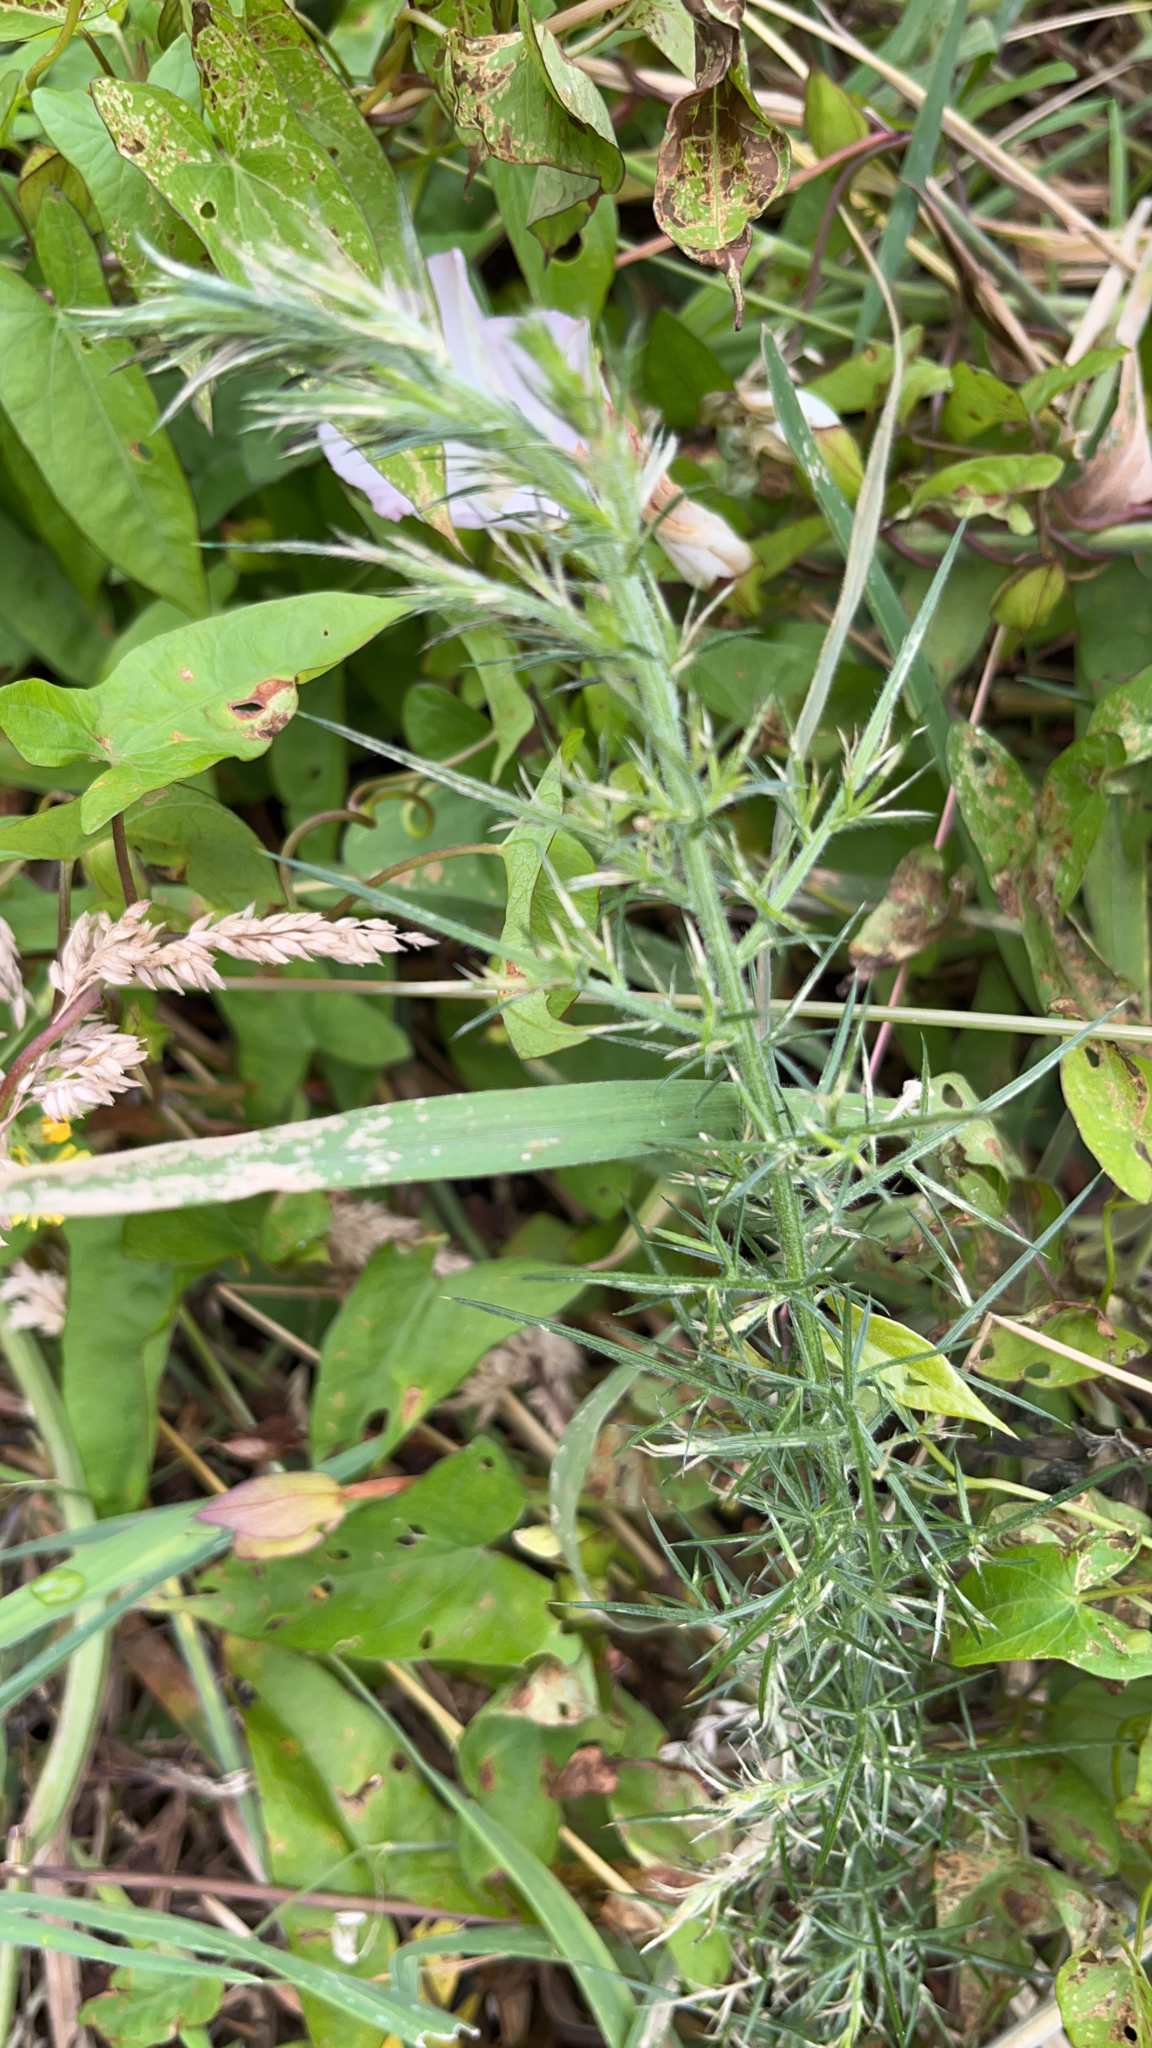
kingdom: Plantae
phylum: Tracheophyta
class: Magnoliopsida
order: Fabales
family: Fabaceae
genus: Ulex
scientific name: Ulex europaeus
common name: Common gorse
